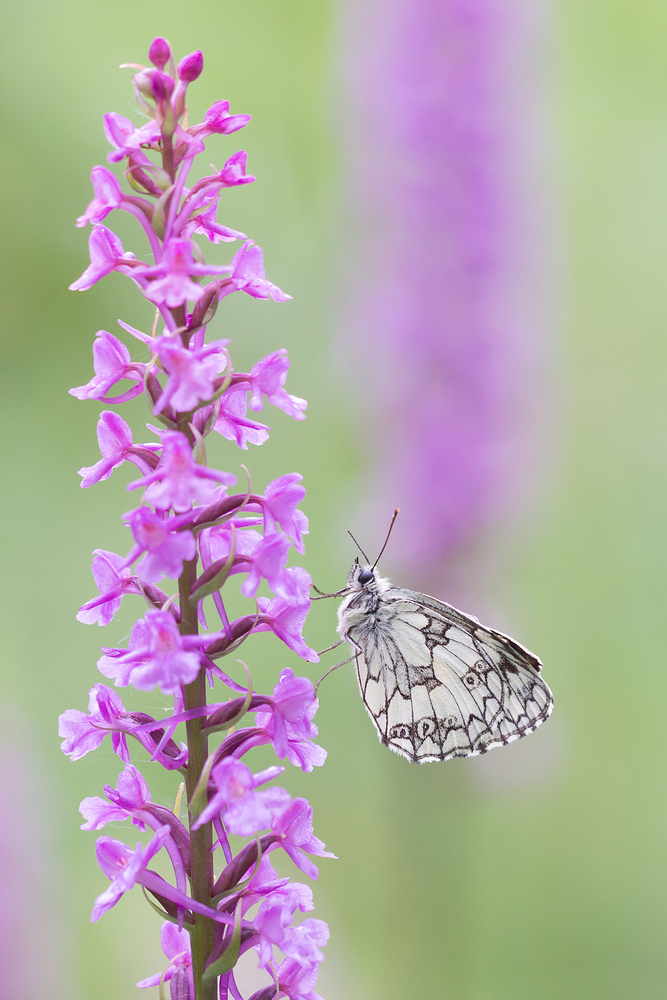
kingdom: Animalia
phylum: Arthropoda
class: Insecta
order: Lepidoptera
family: Nymphalidae
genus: Melanargia
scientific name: Melanargia galathea
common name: Marbled white
